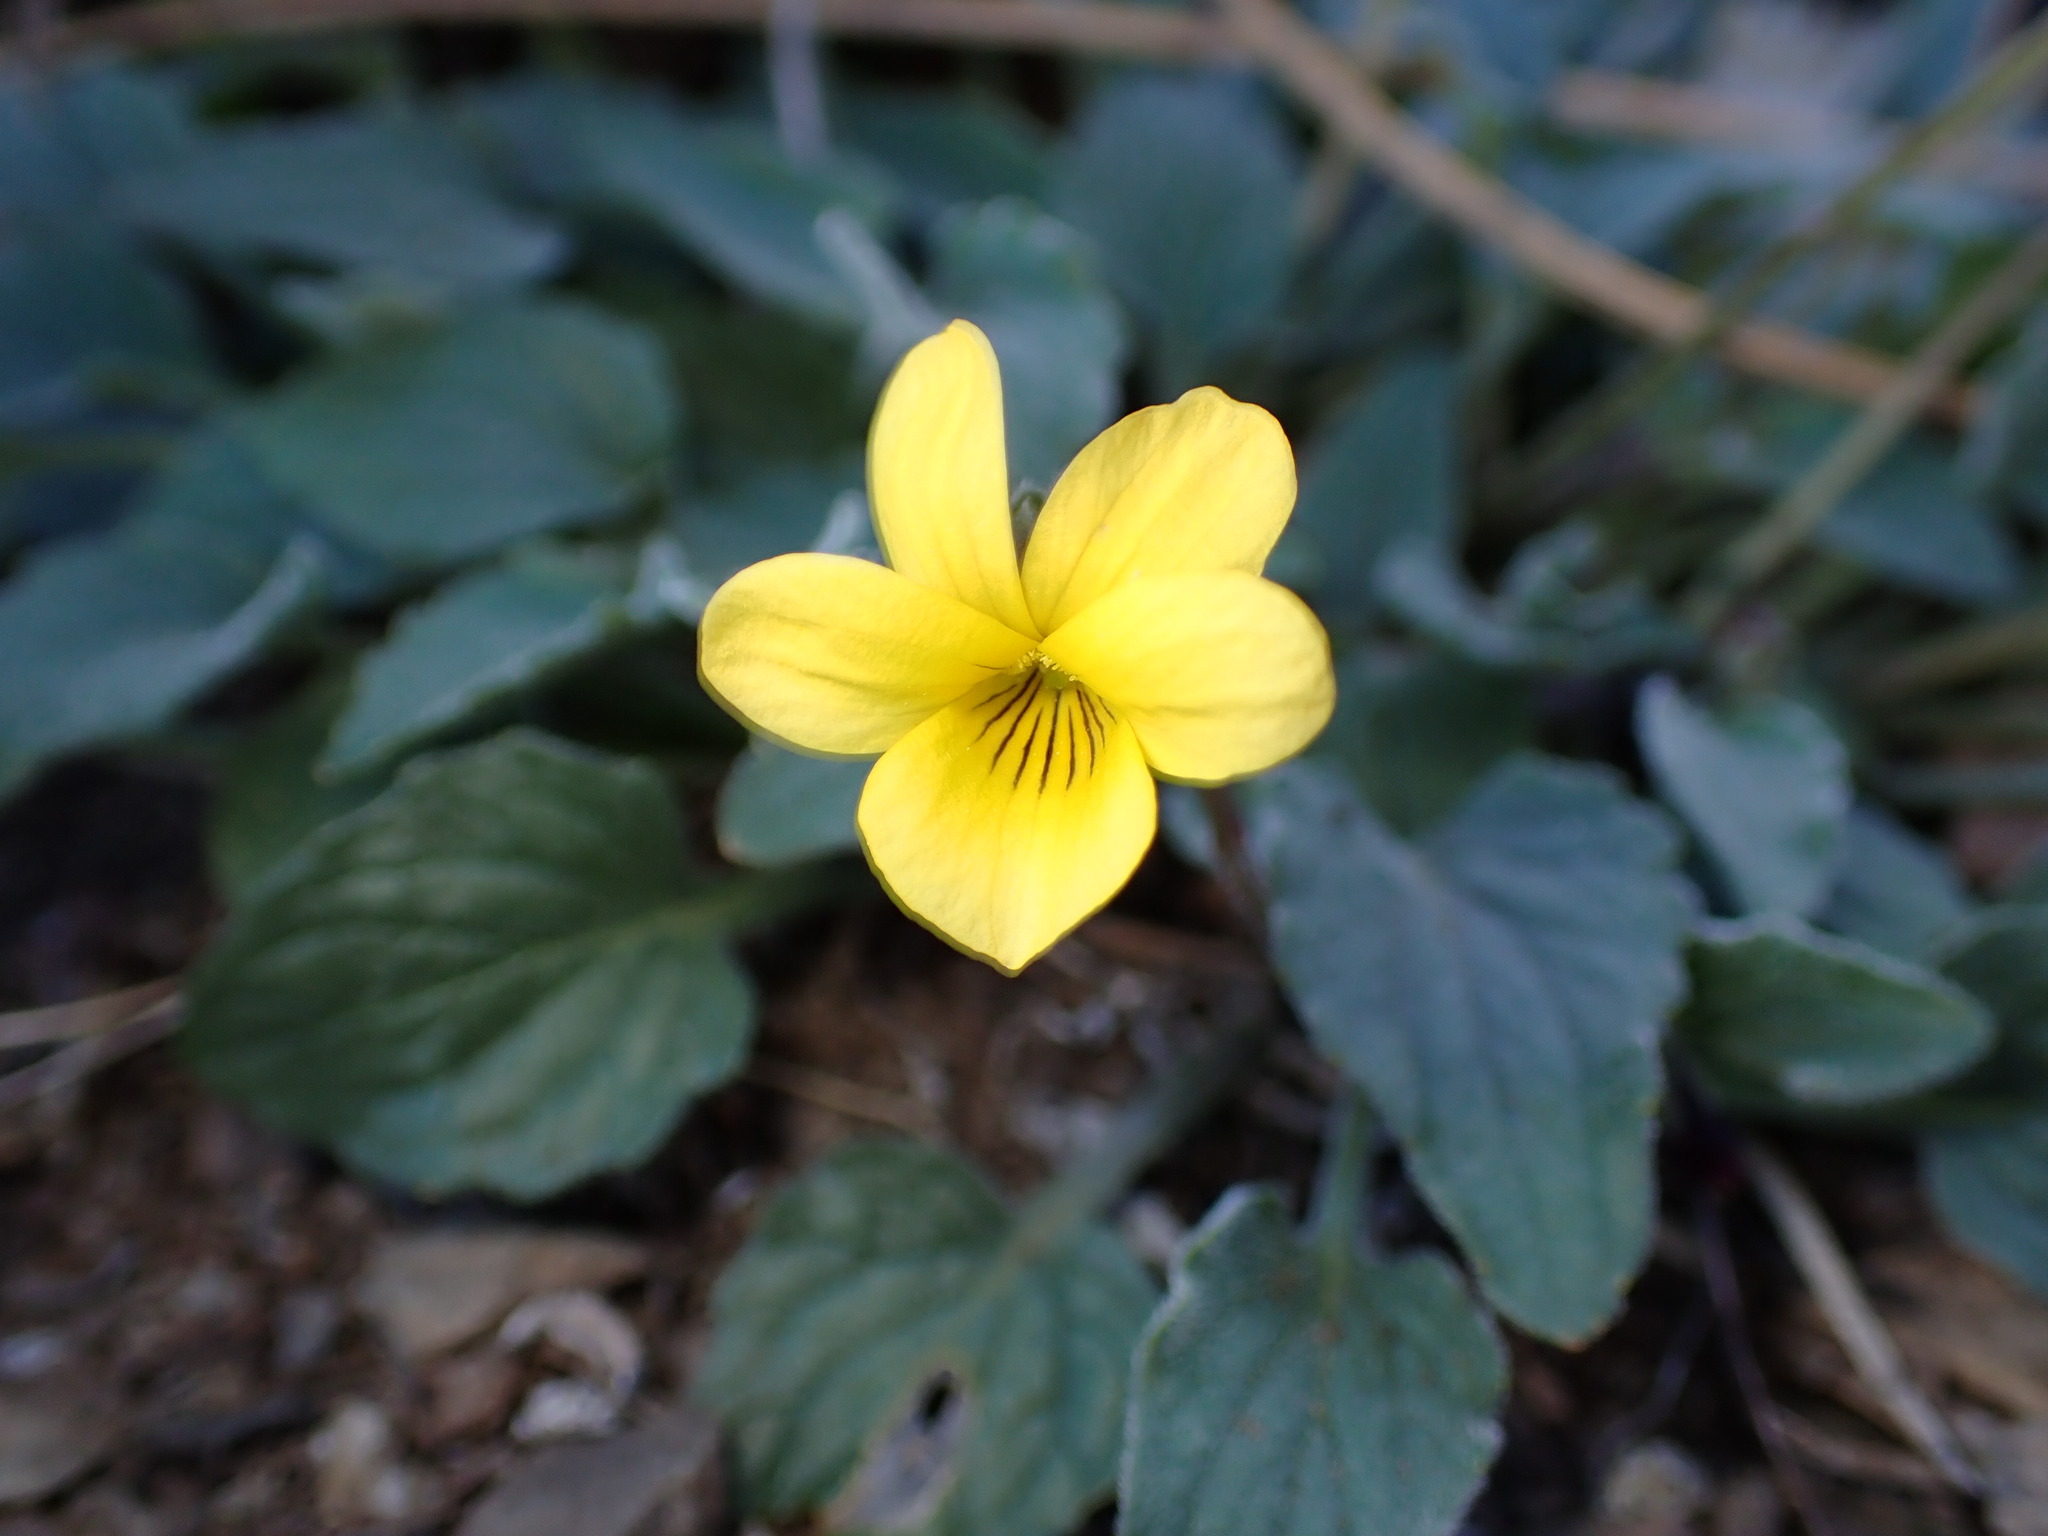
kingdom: Plantae
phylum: Tracheophyta
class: Magnoliopsida
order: Malpighiales
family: Violaceae
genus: Viola
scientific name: Viola purpurea
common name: Pine violet
